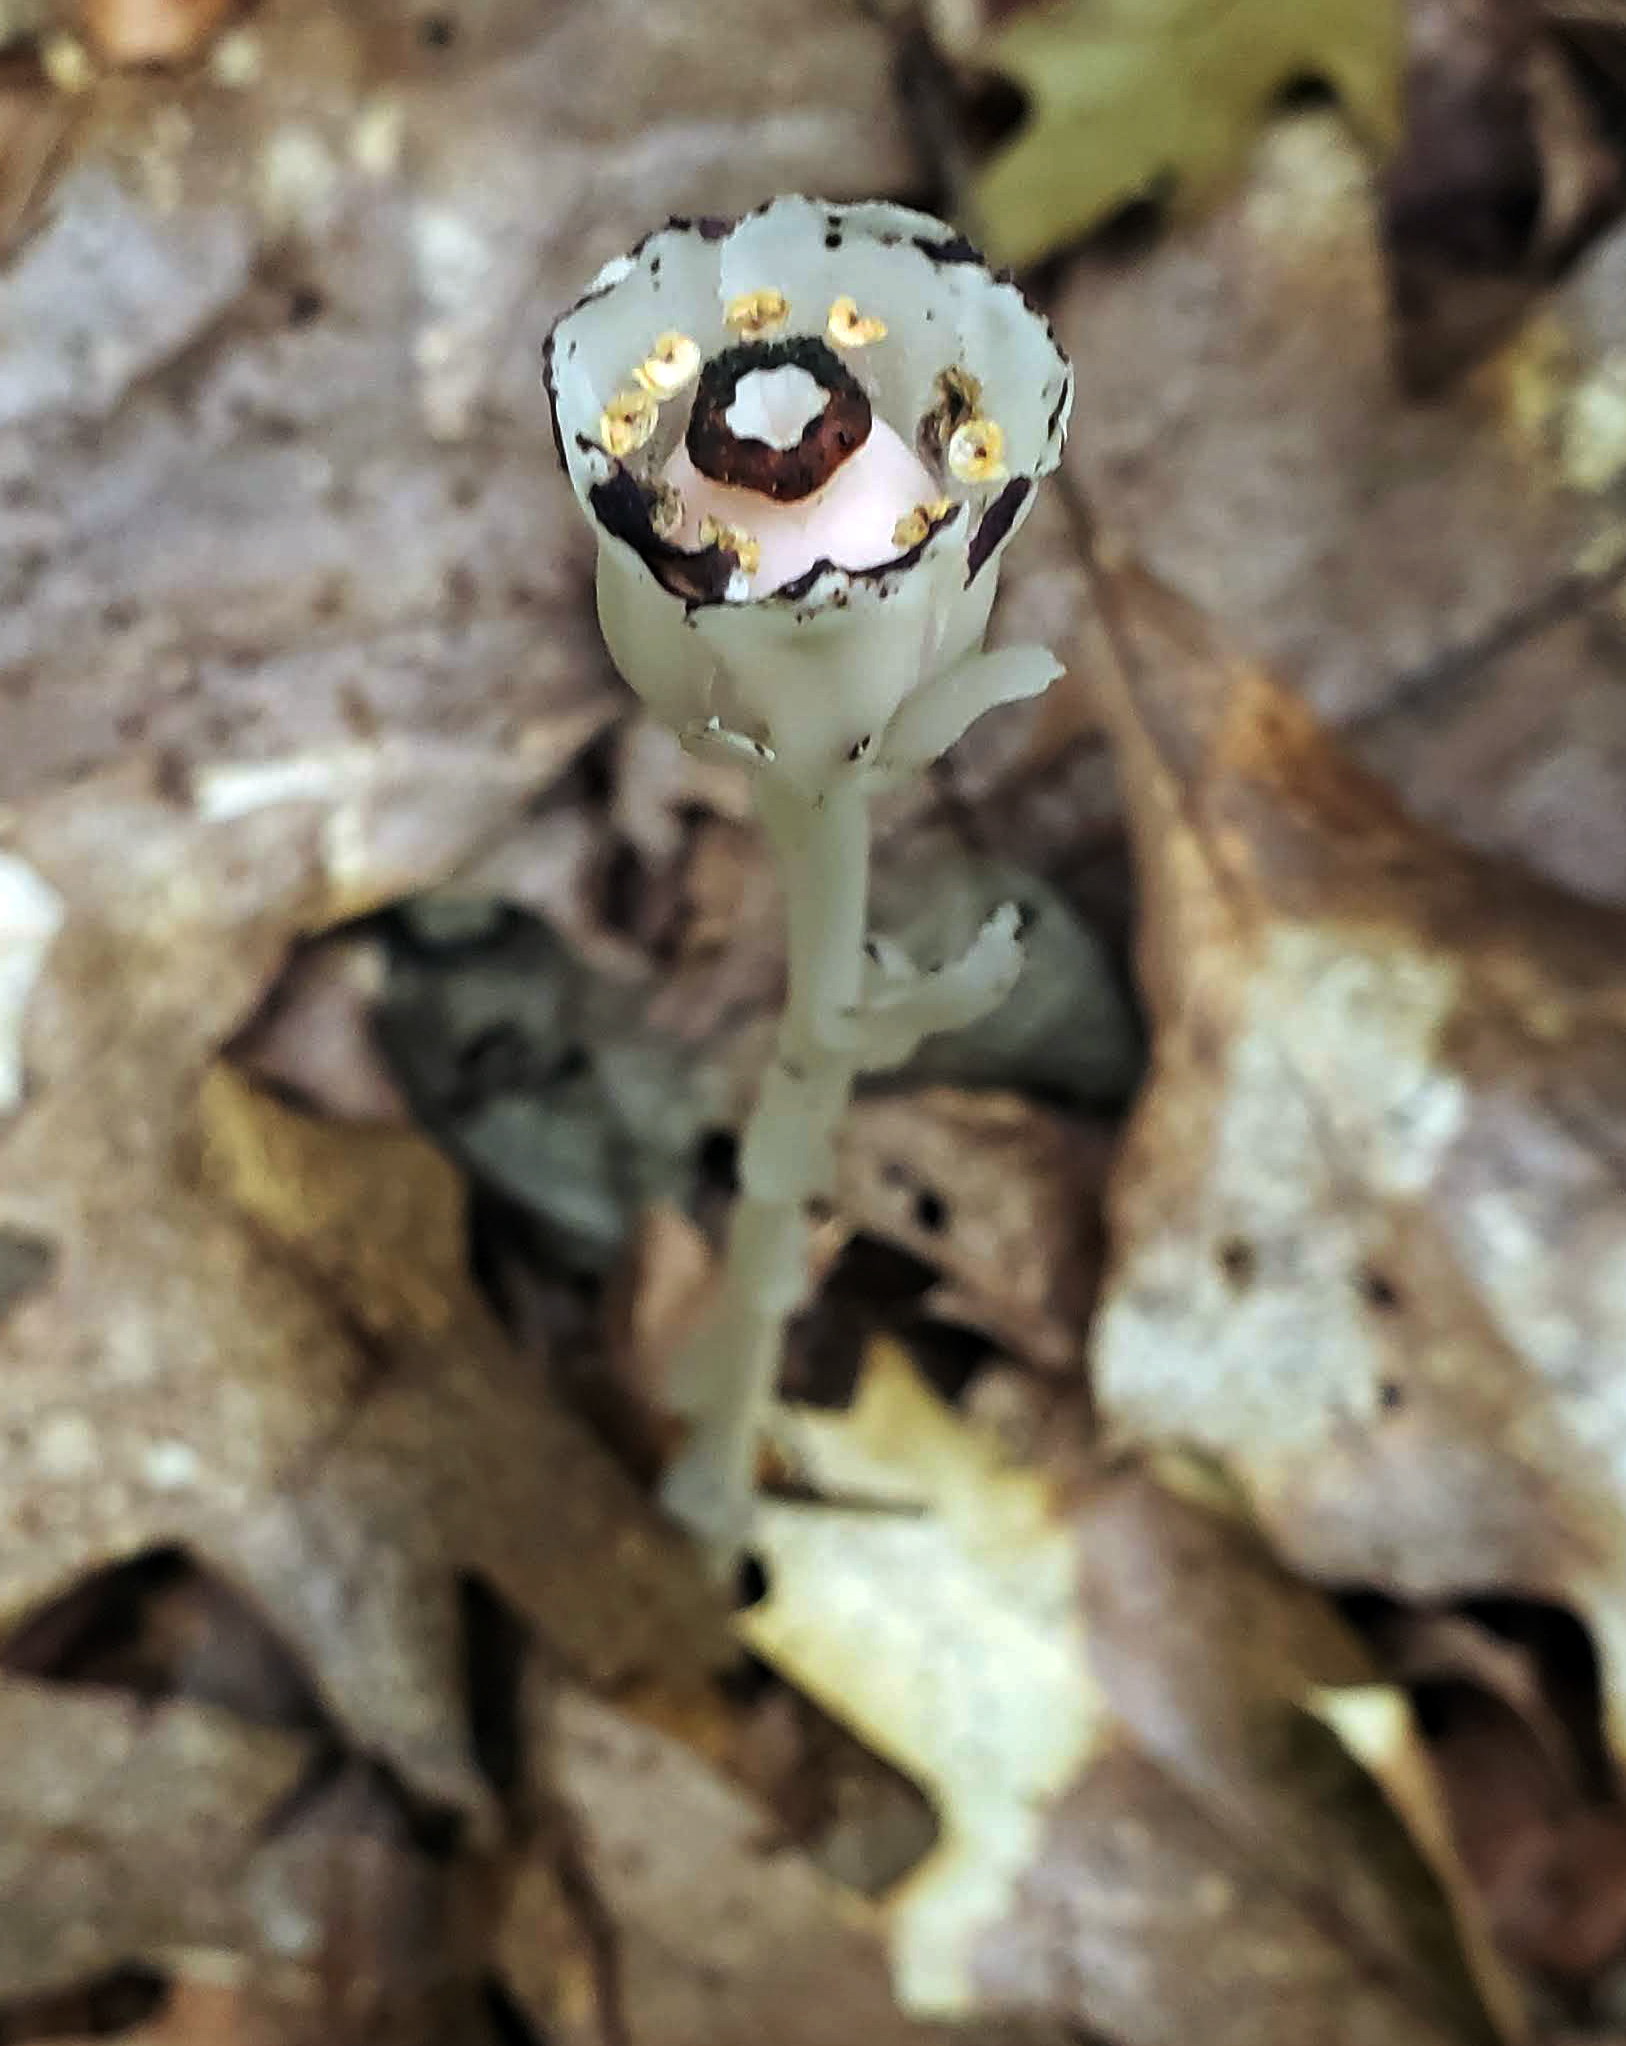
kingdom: Plantae
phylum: Tracheophyta
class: Magnoliopsida
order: Ericales
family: Ericaceae
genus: Monotropa
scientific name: Monotropa uniflora
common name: Convulsion root
